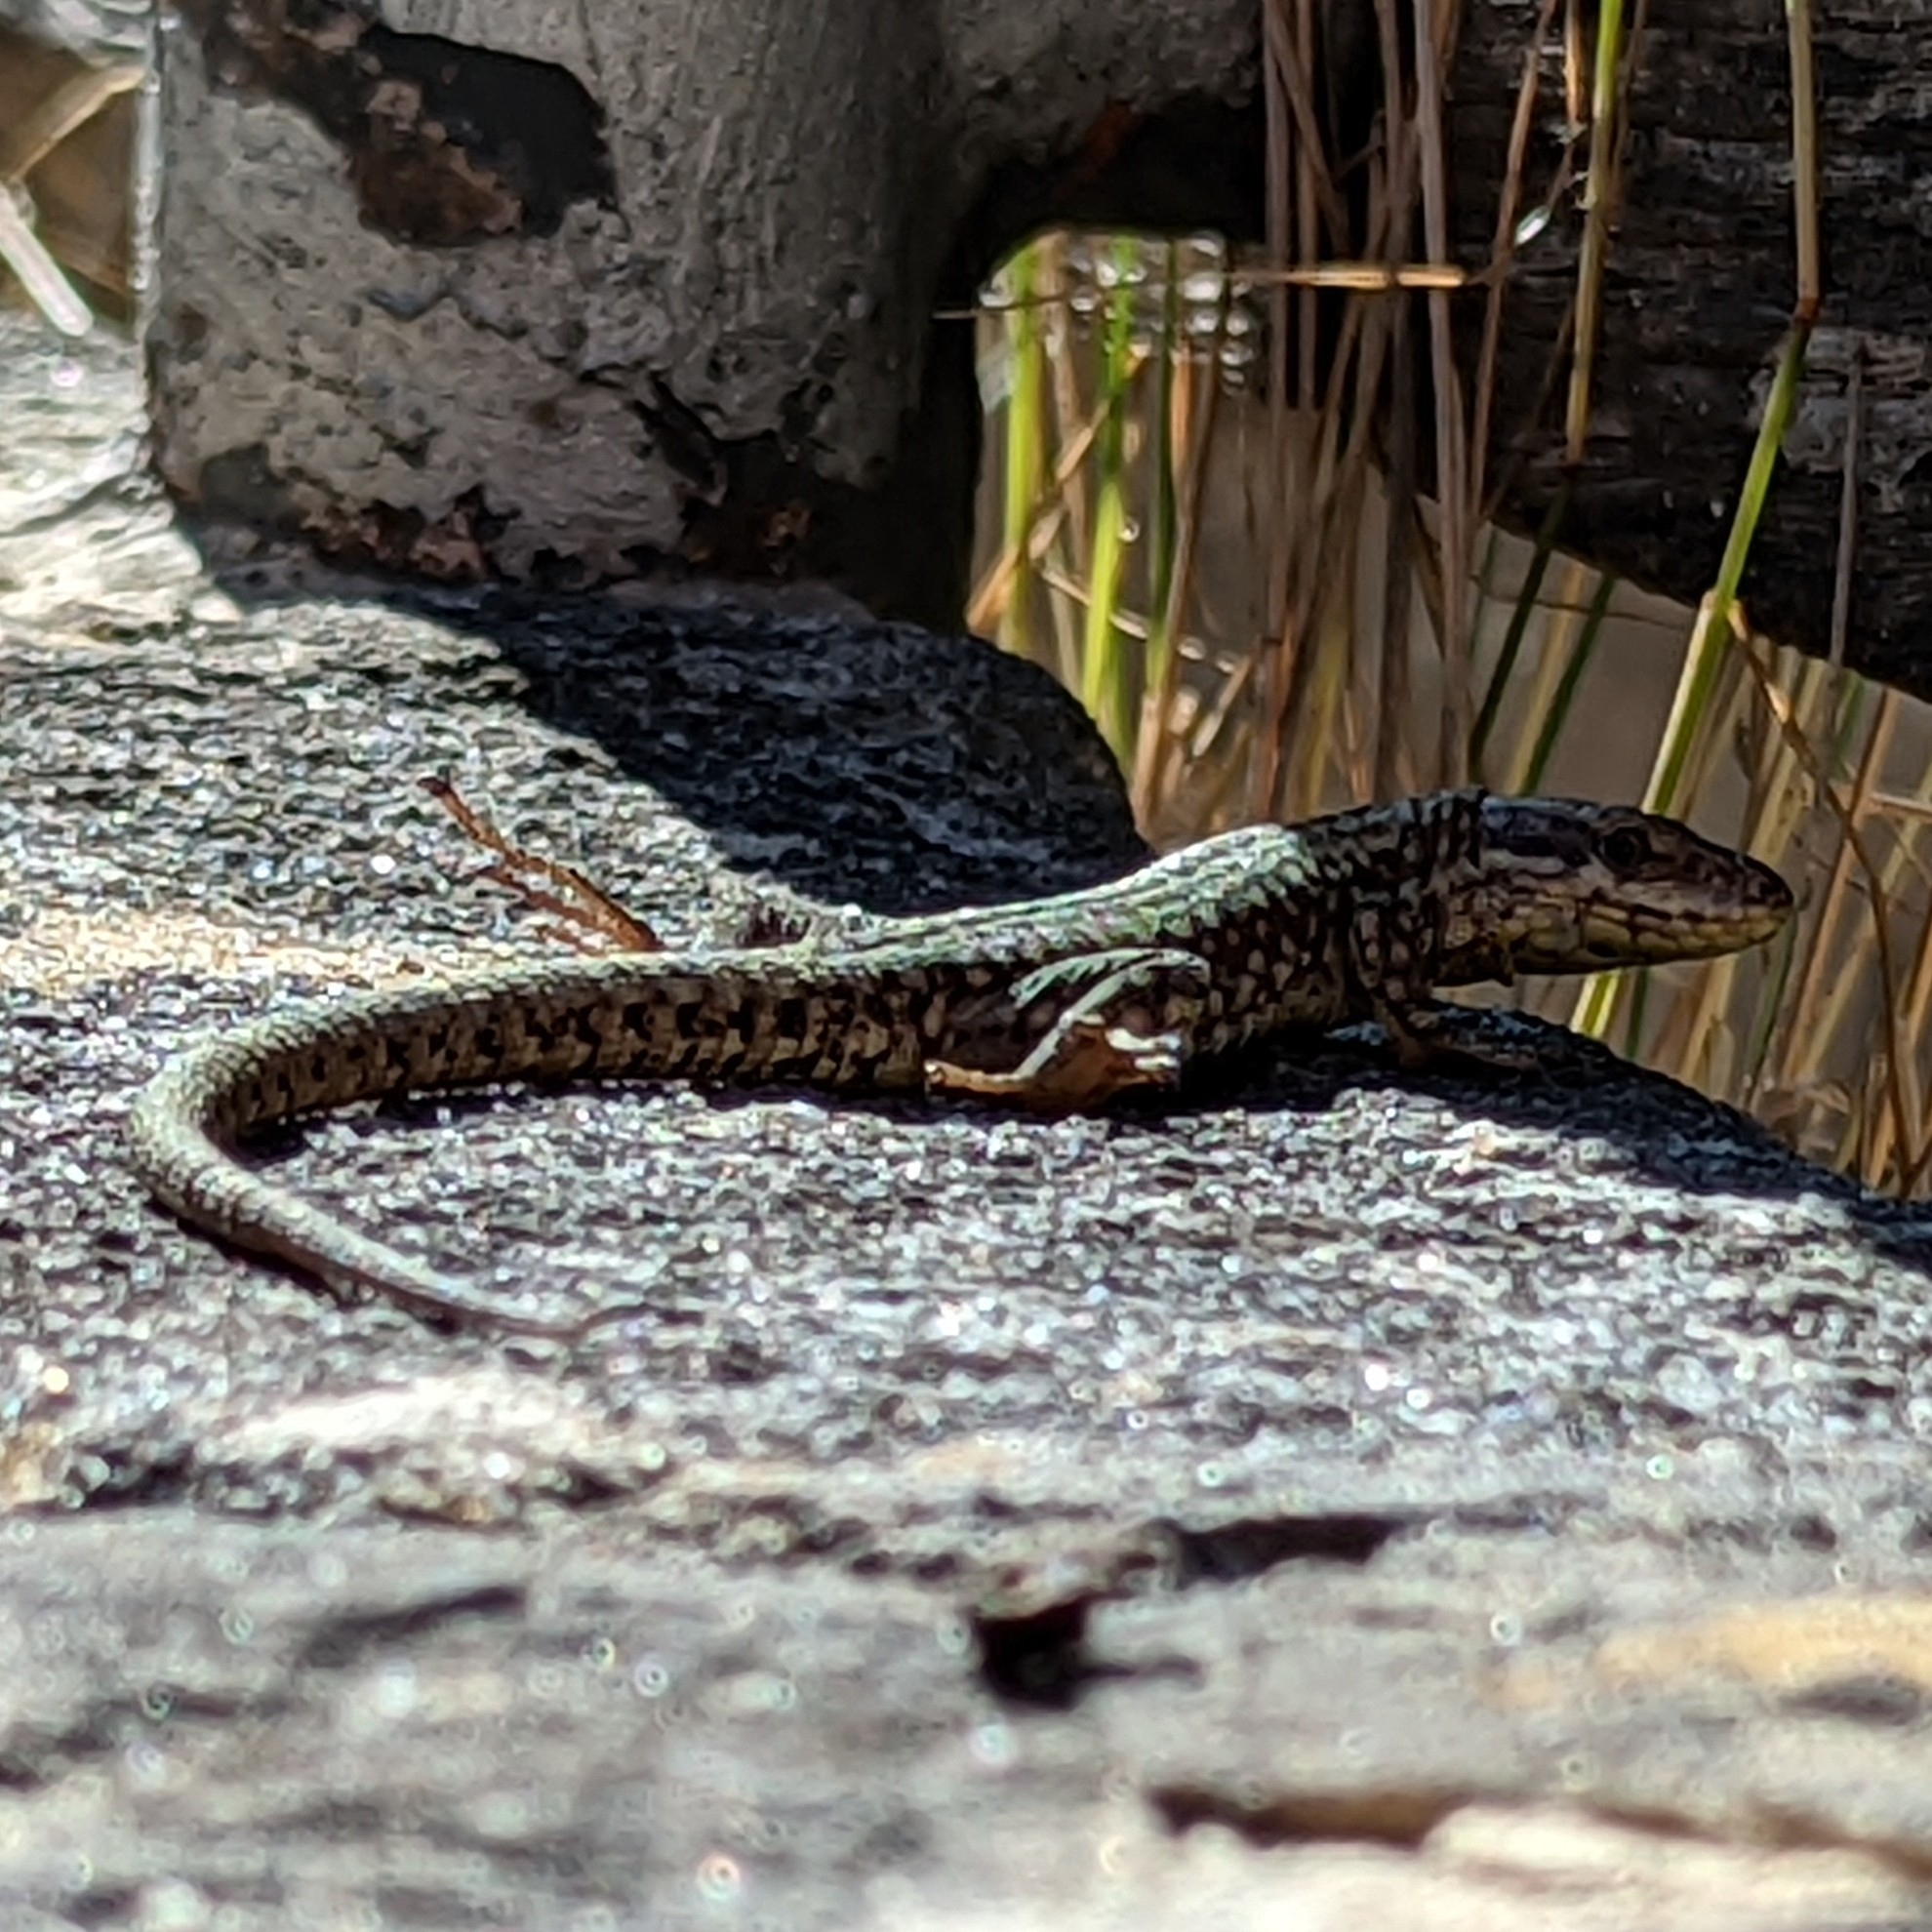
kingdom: Animalia
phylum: Chordata
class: Squamata
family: Lacertidae
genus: Podarcis
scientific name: Podarcis muralis
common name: Common wall lizard
